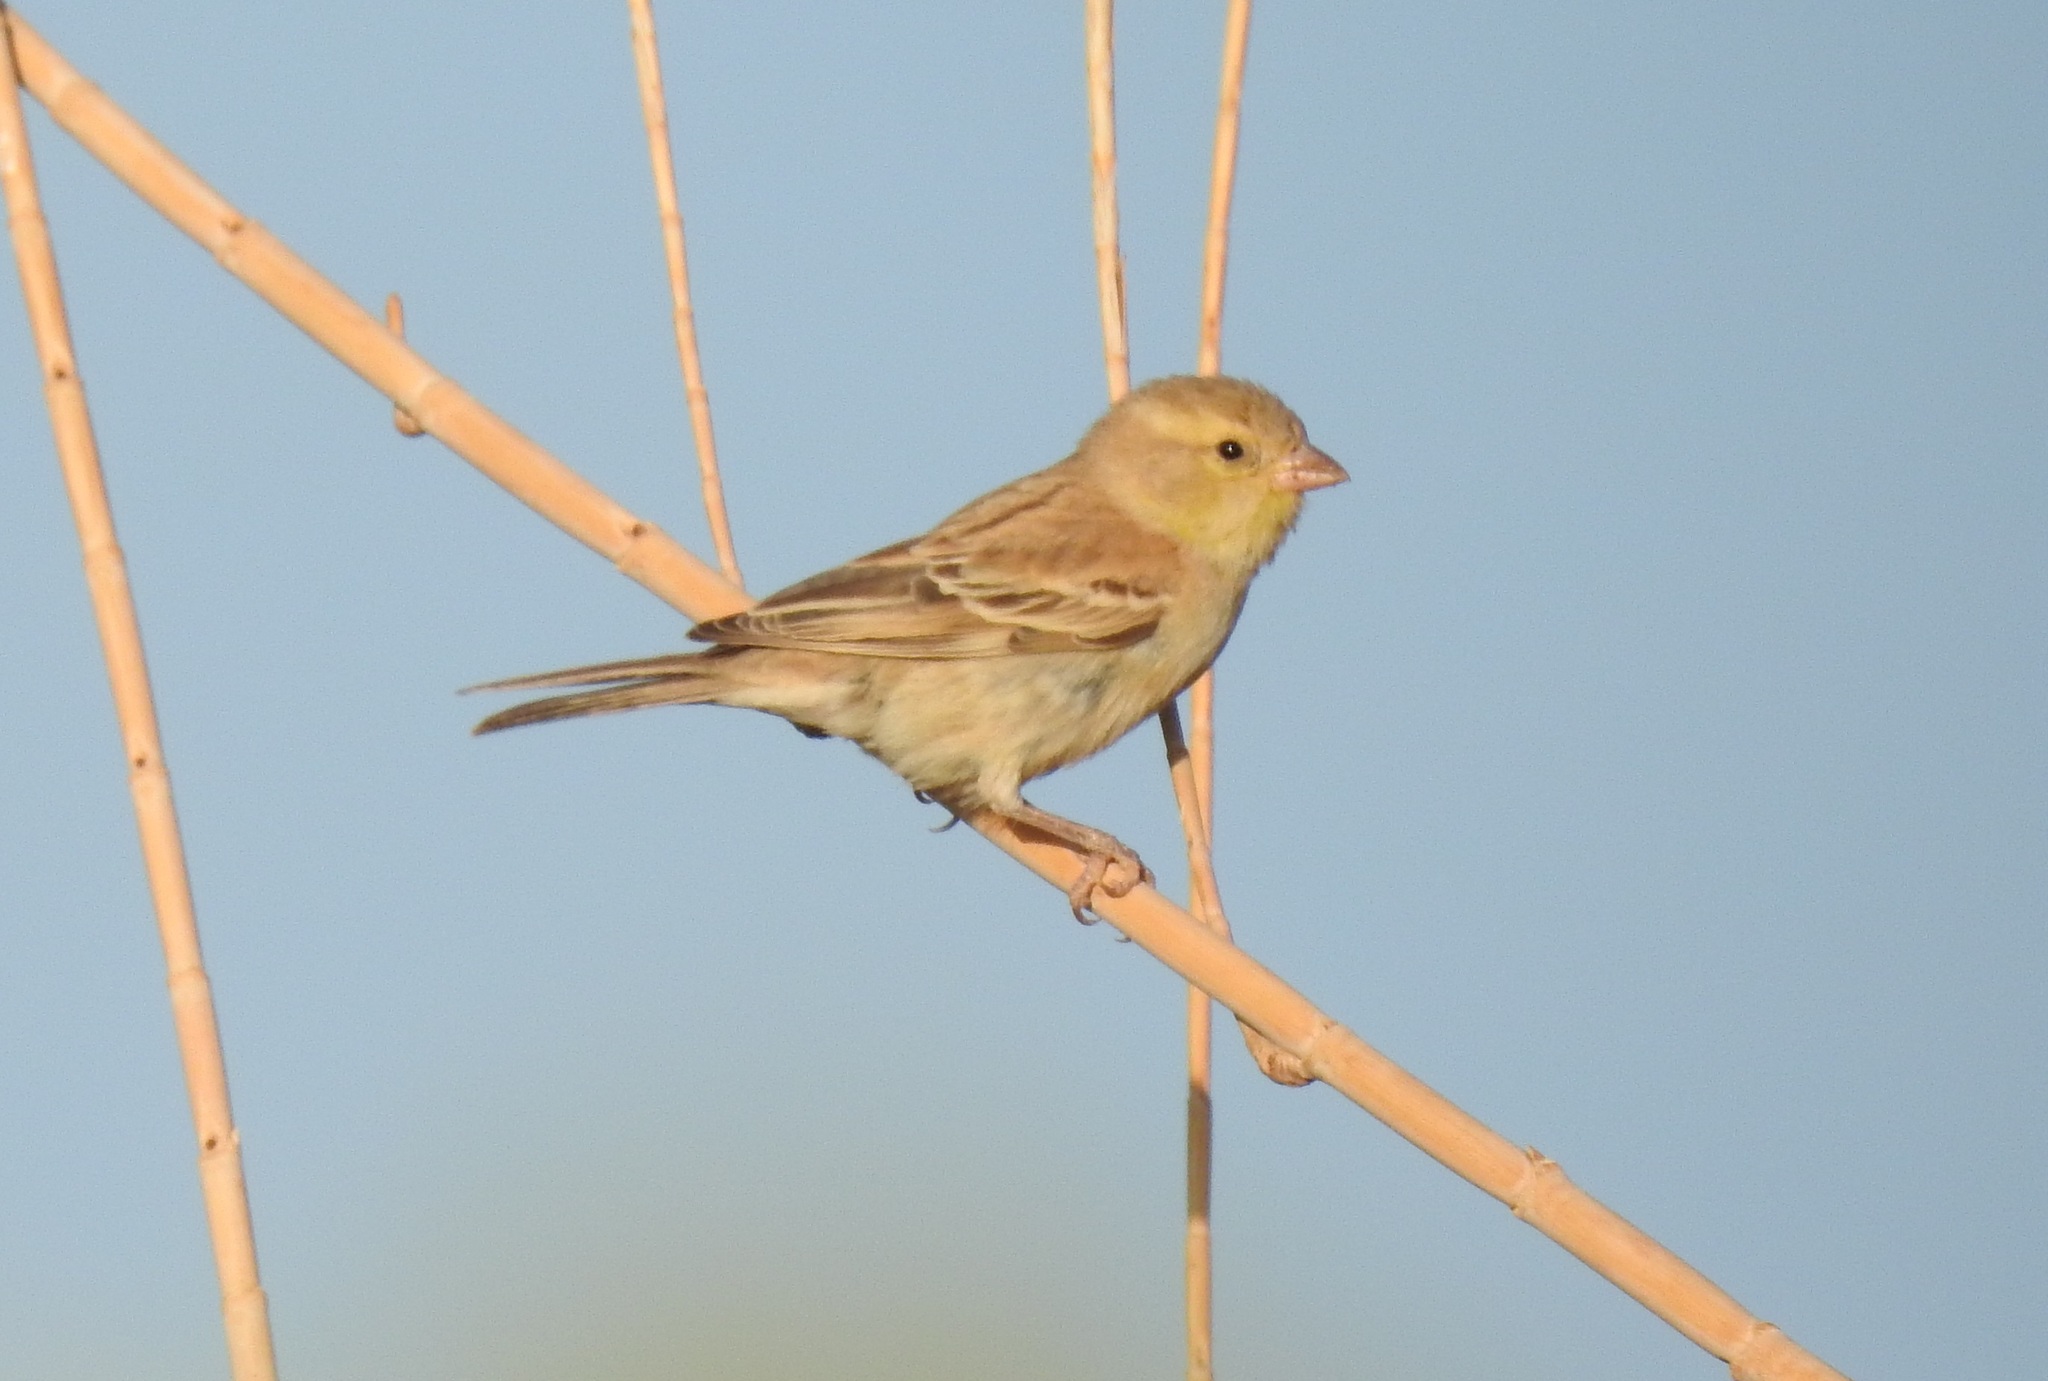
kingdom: Animalia
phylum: Chordata
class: Aves
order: Passeriformes
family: Passeridae
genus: Passer
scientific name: Passer luteus
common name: Sudan golden sparrow
